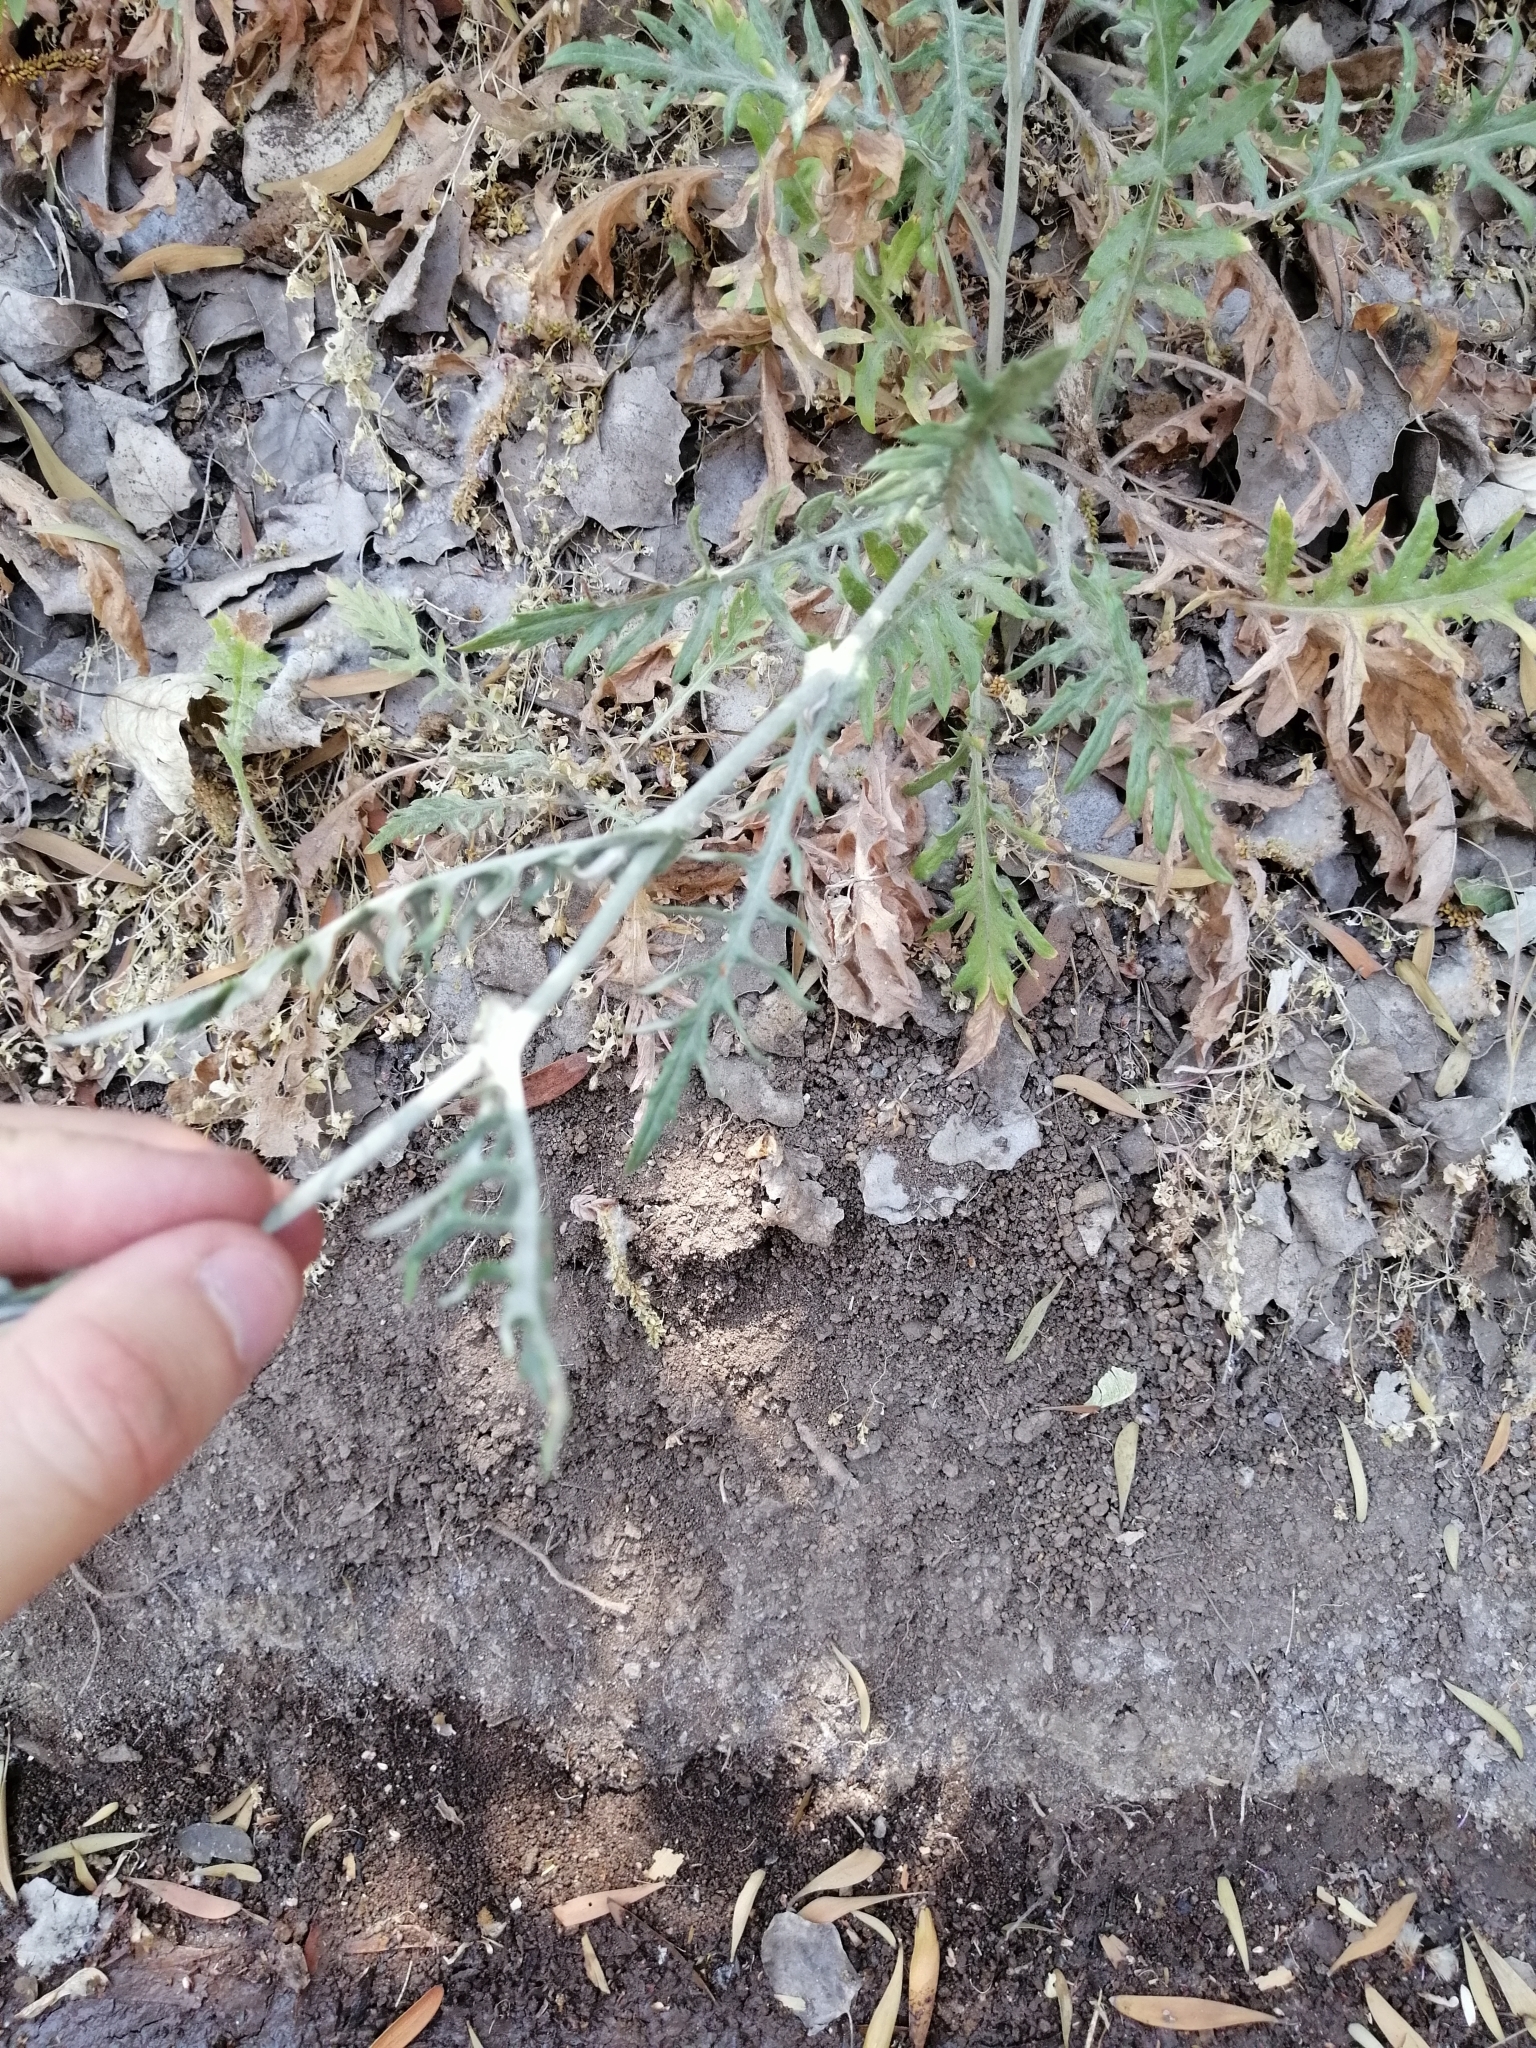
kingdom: Plantae
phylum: Tracheophyta
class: Magnoliopsida
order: Asterales
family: Asteraceae
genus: Leucheria
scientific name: Leucheria rosea
